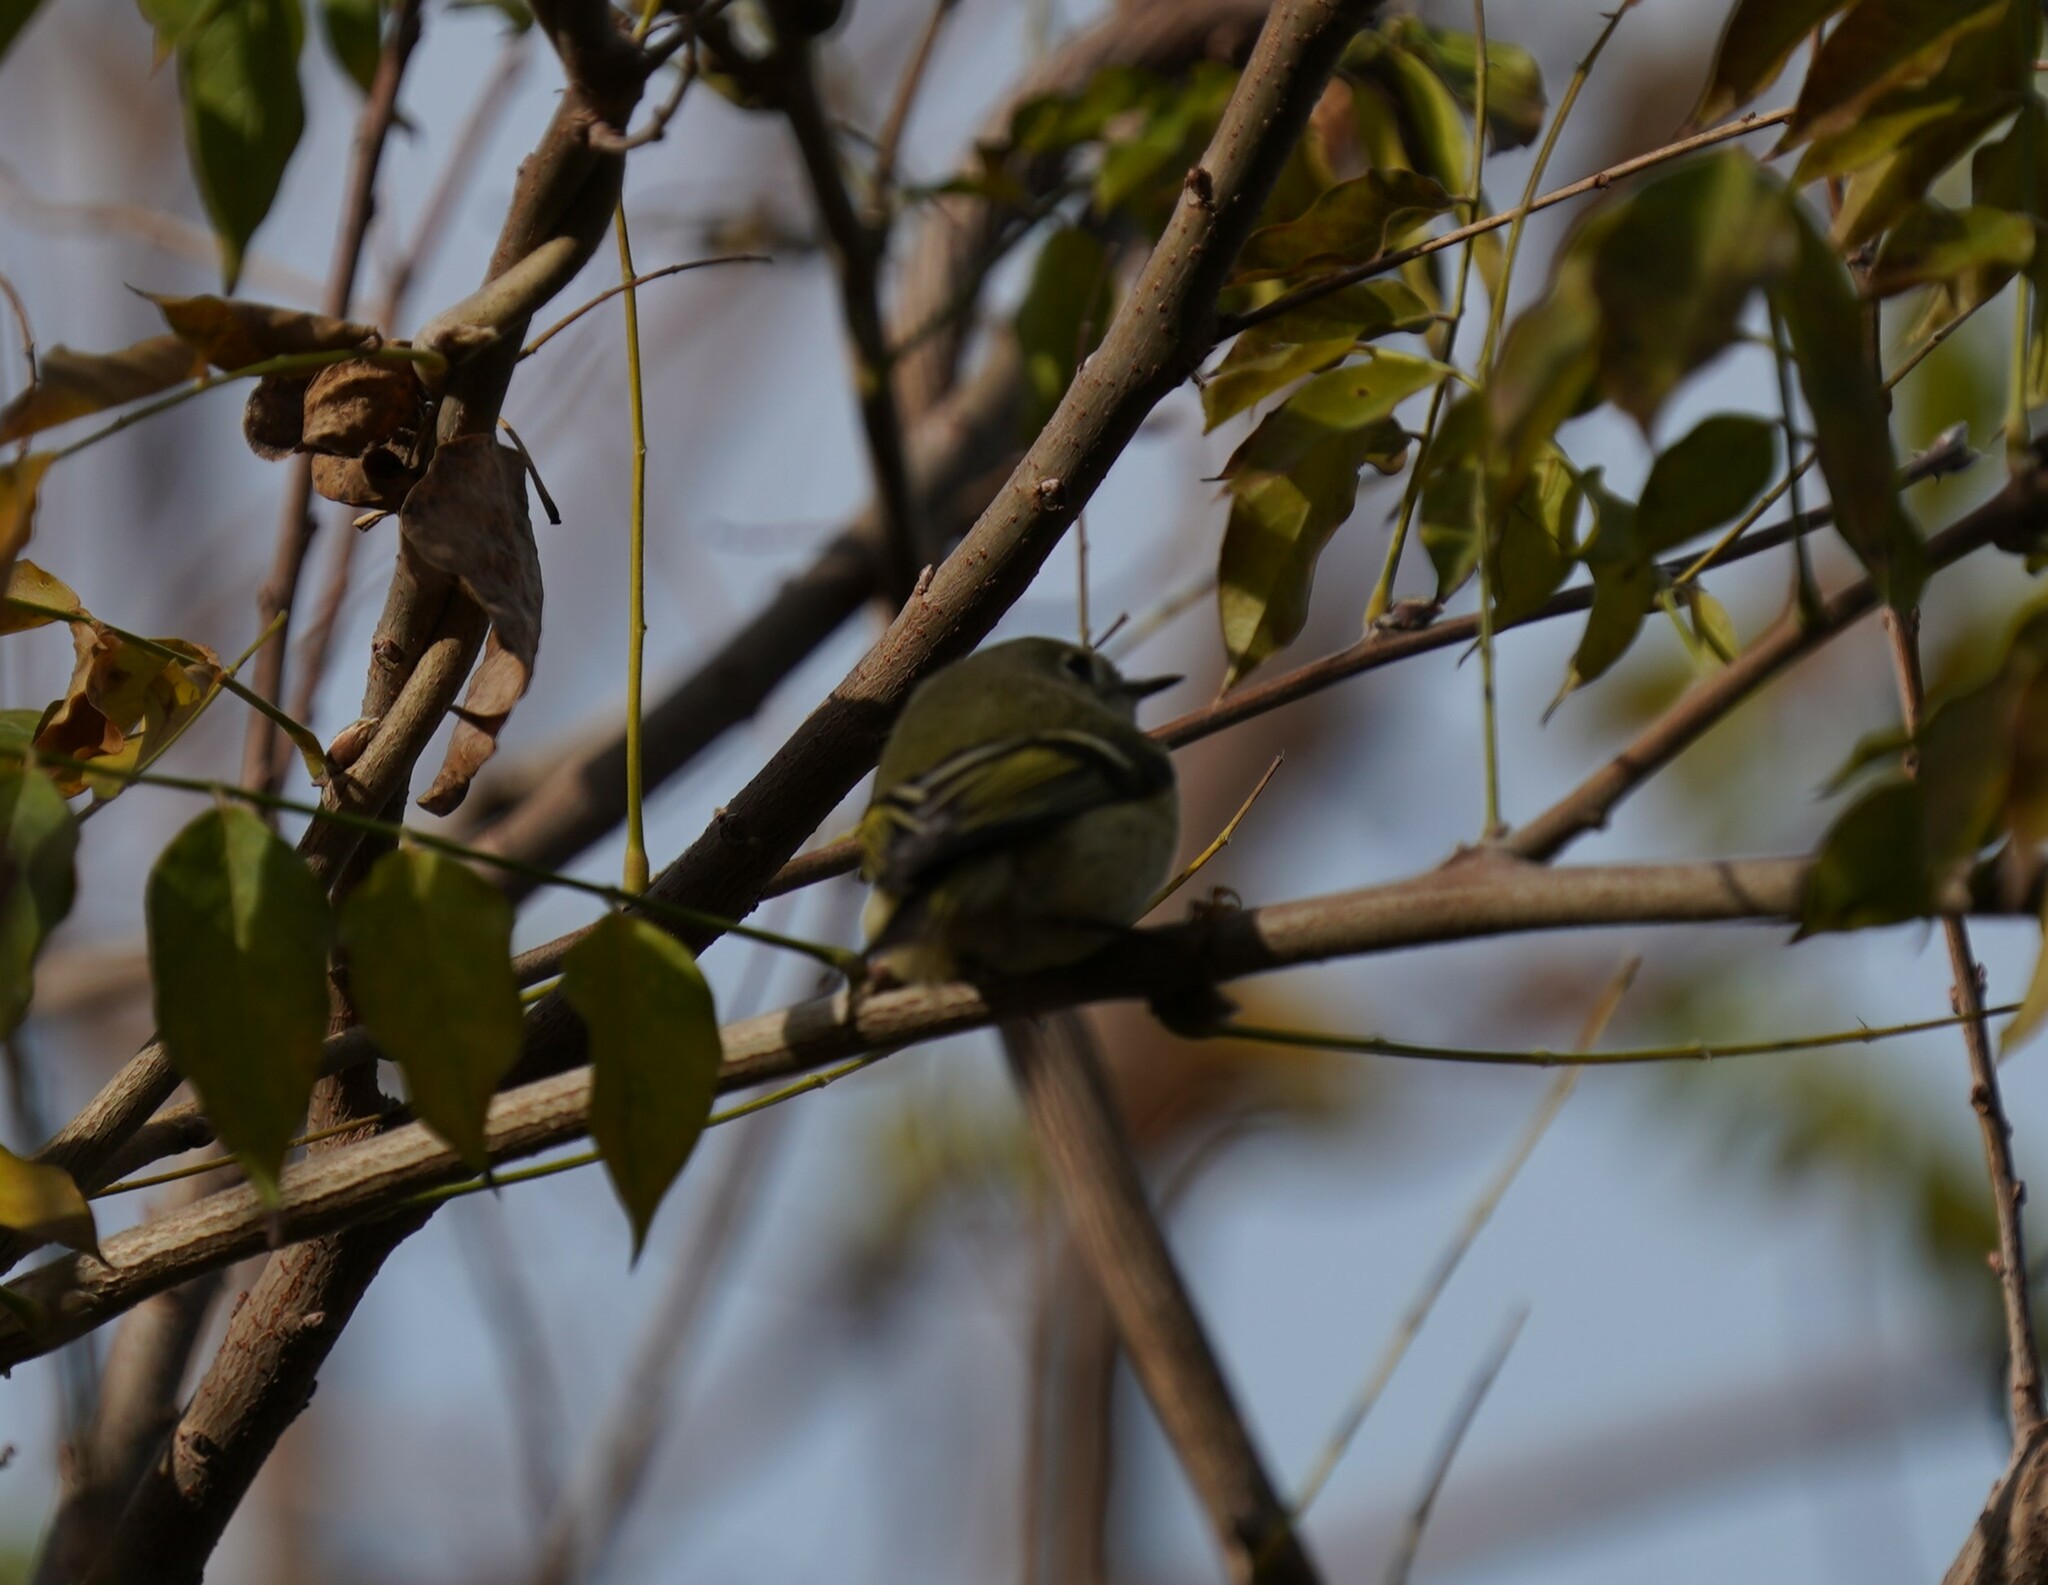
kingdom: Animalia
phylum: Chordata
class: Aves
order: Passeriformes
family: Regulidae
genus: Regulus
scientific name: Regulus calendula
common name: Ruby-crowned kinglet
